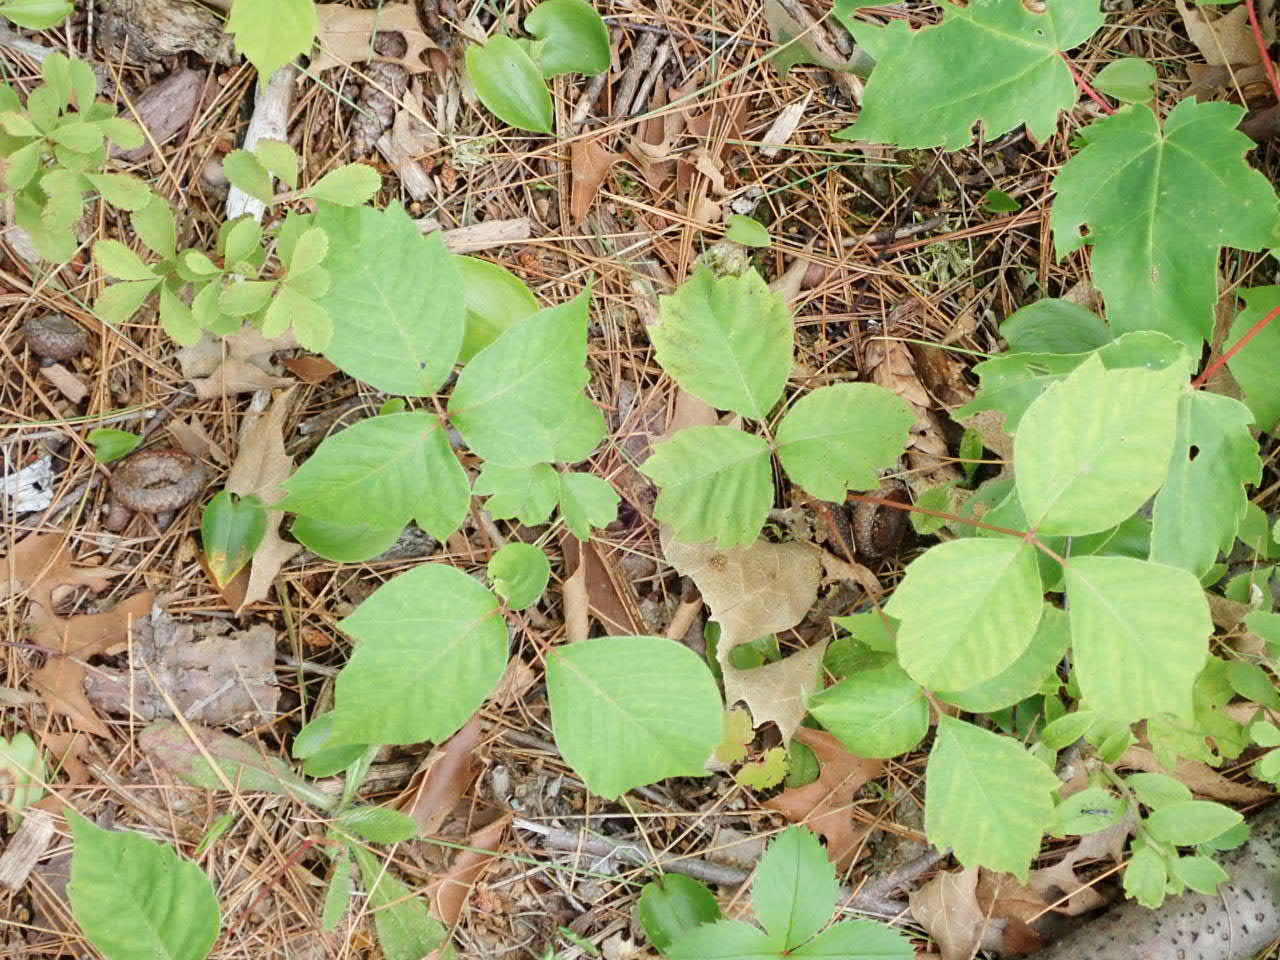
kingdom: Plantae
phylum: Tracheophyta
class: Magnoliopsida
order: Sapindales
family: Anacardiaceae
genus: Toxicodendron
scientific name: Toxicodendron radicans
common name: Poison ivy
